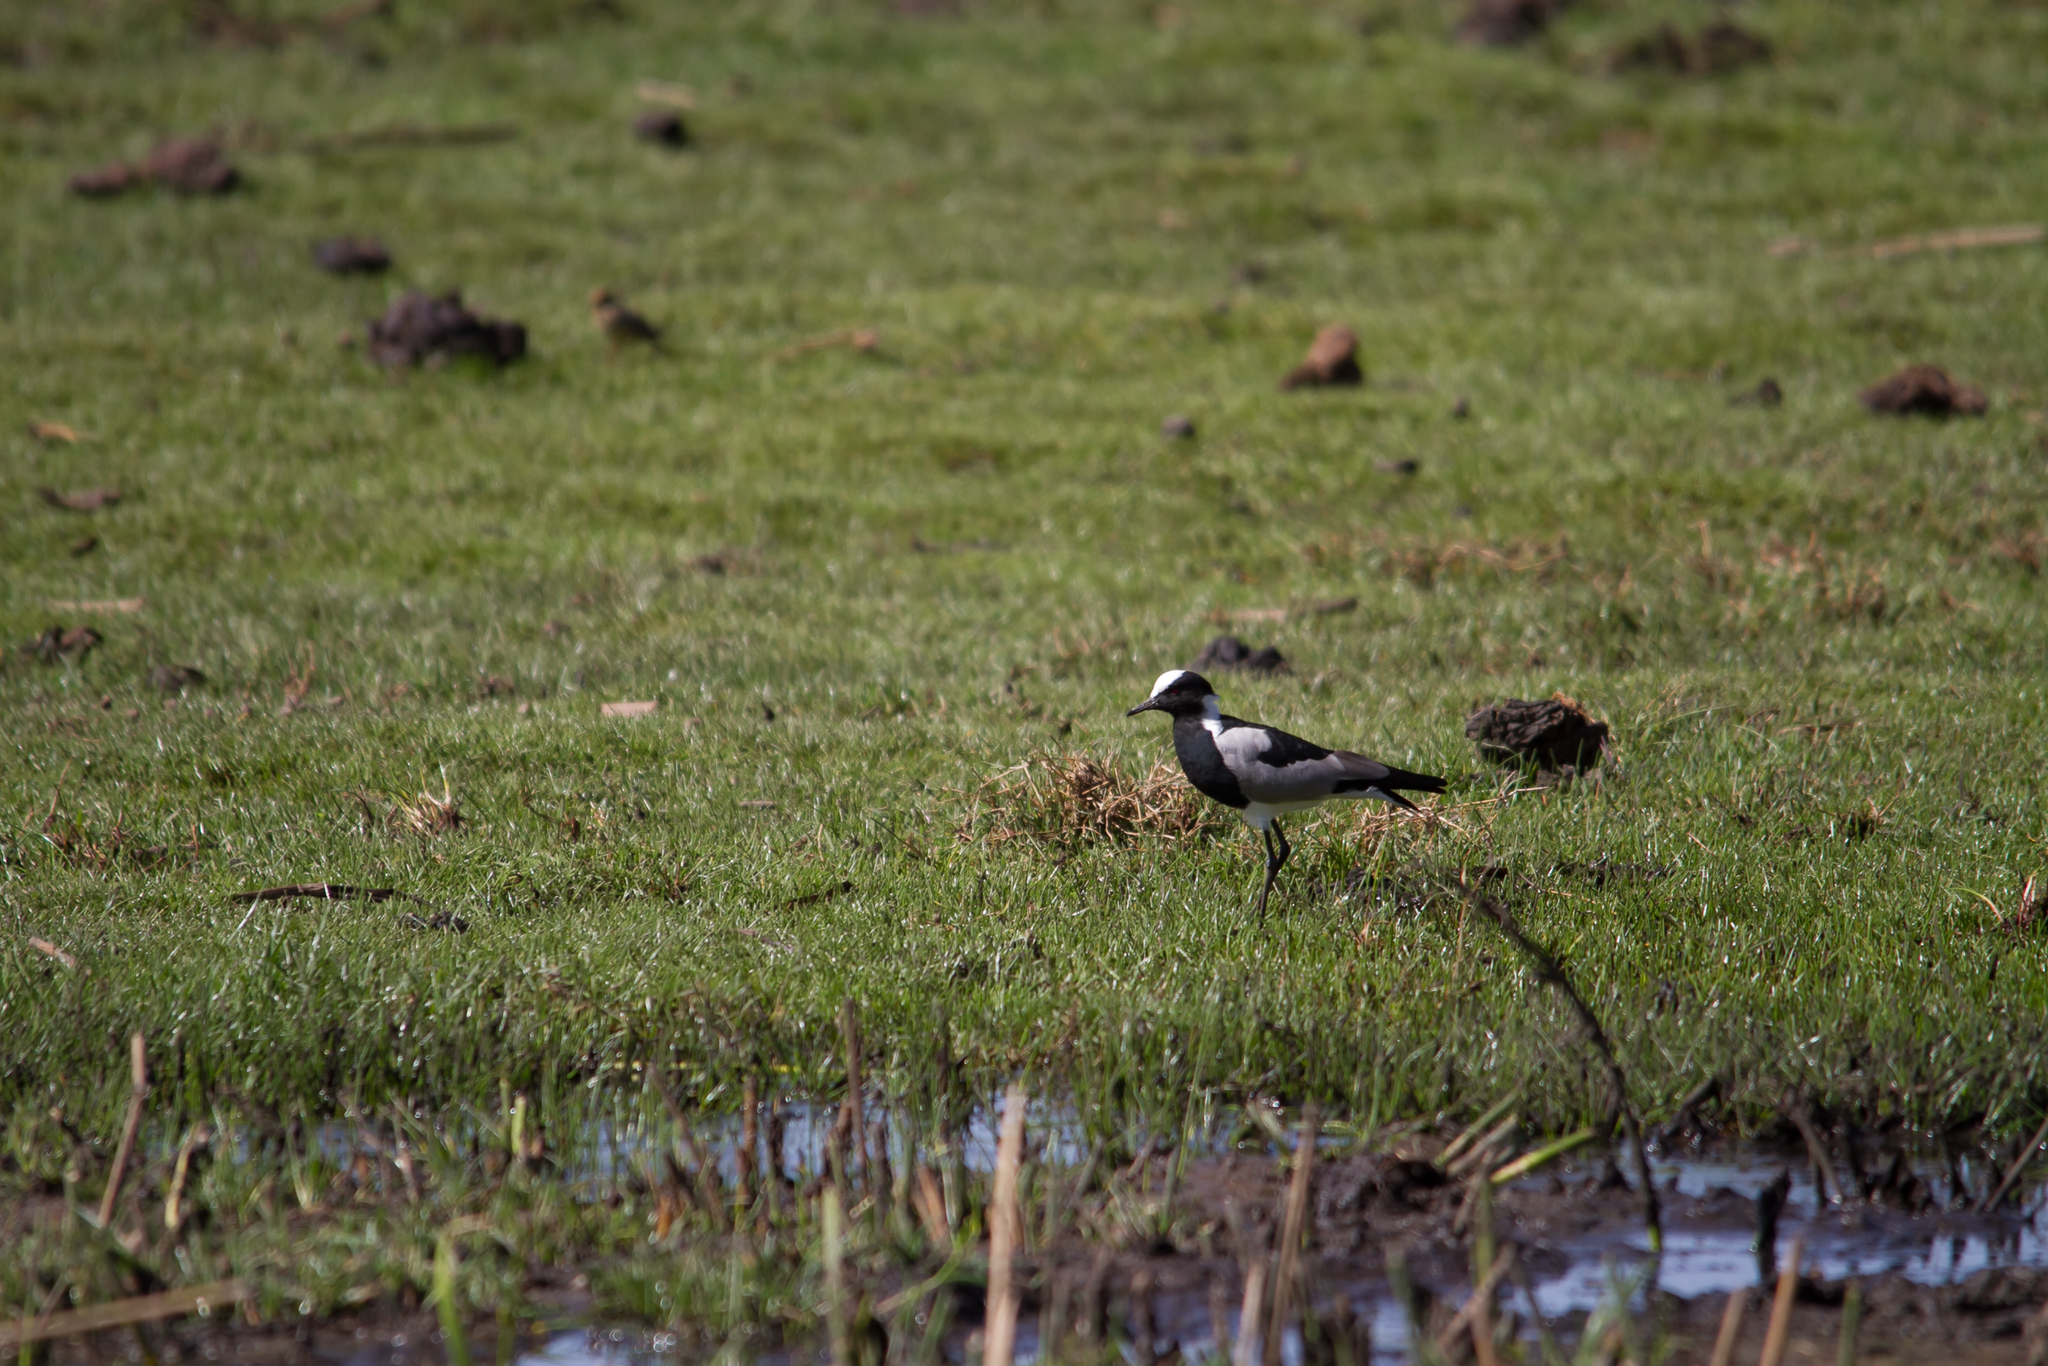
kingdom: Animalia
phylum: Chordata
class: Aves
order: Charadriiformes
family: Charadriidae
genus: Vanellus
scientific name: Vanellus armatus
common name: Blacksmith lapwing
